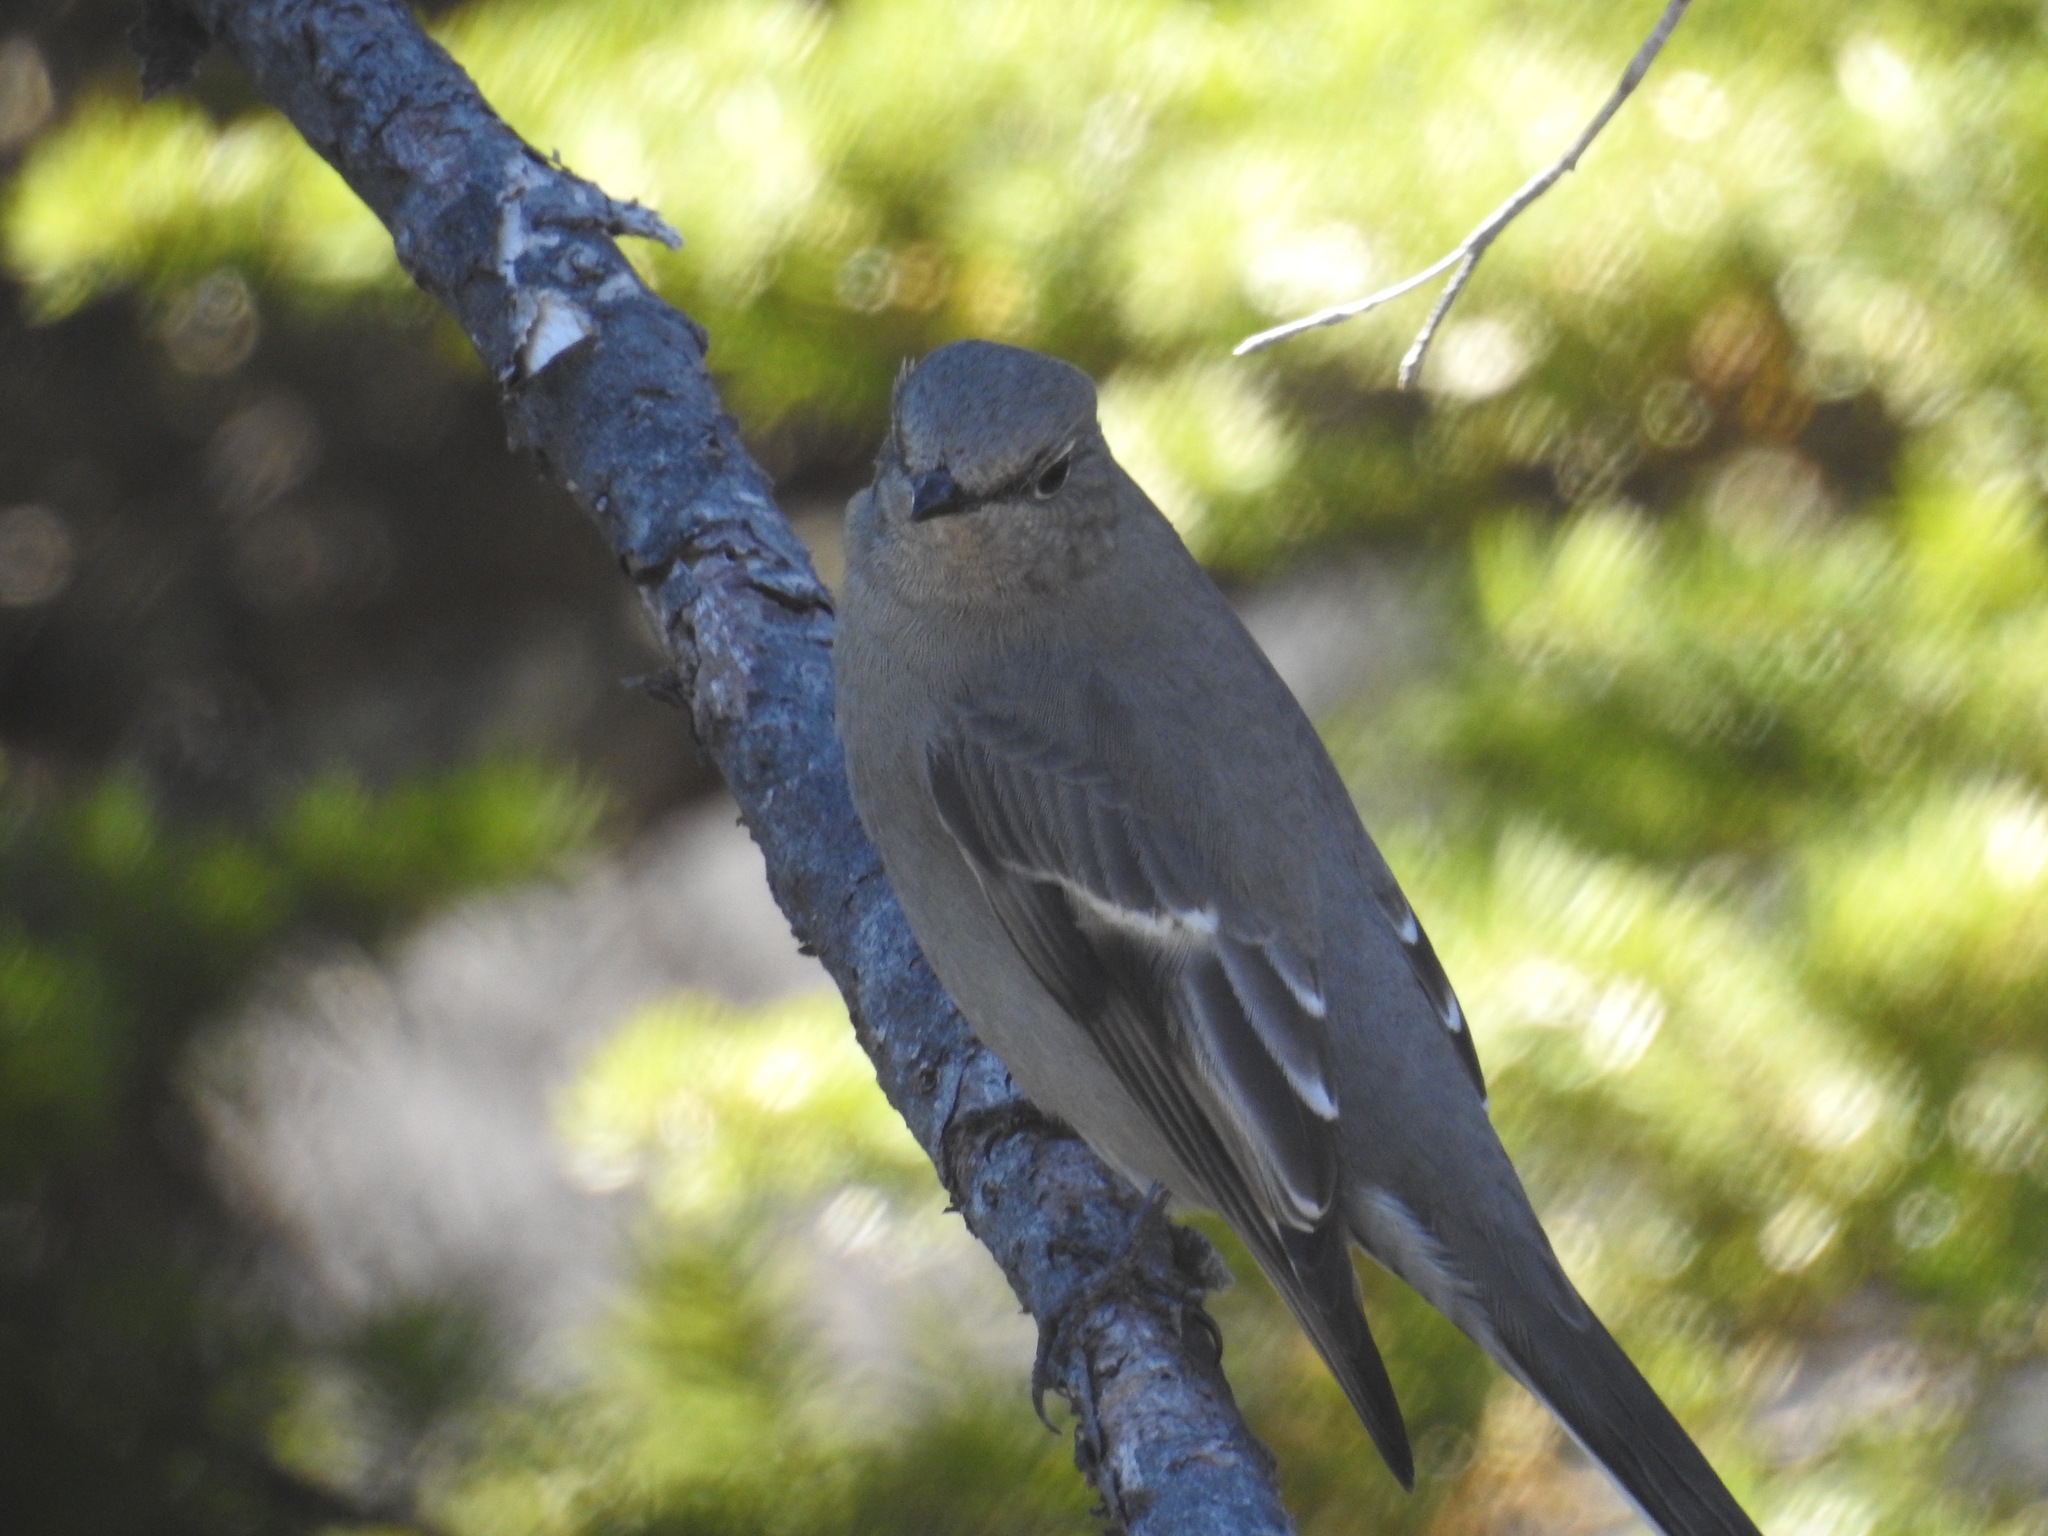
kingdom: Animalia
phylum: Chordata
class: Aves
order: Passeriformes
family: Turdidae
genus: Myadestes
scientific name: Myadestes townsendi
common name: Townsend's solitaire
